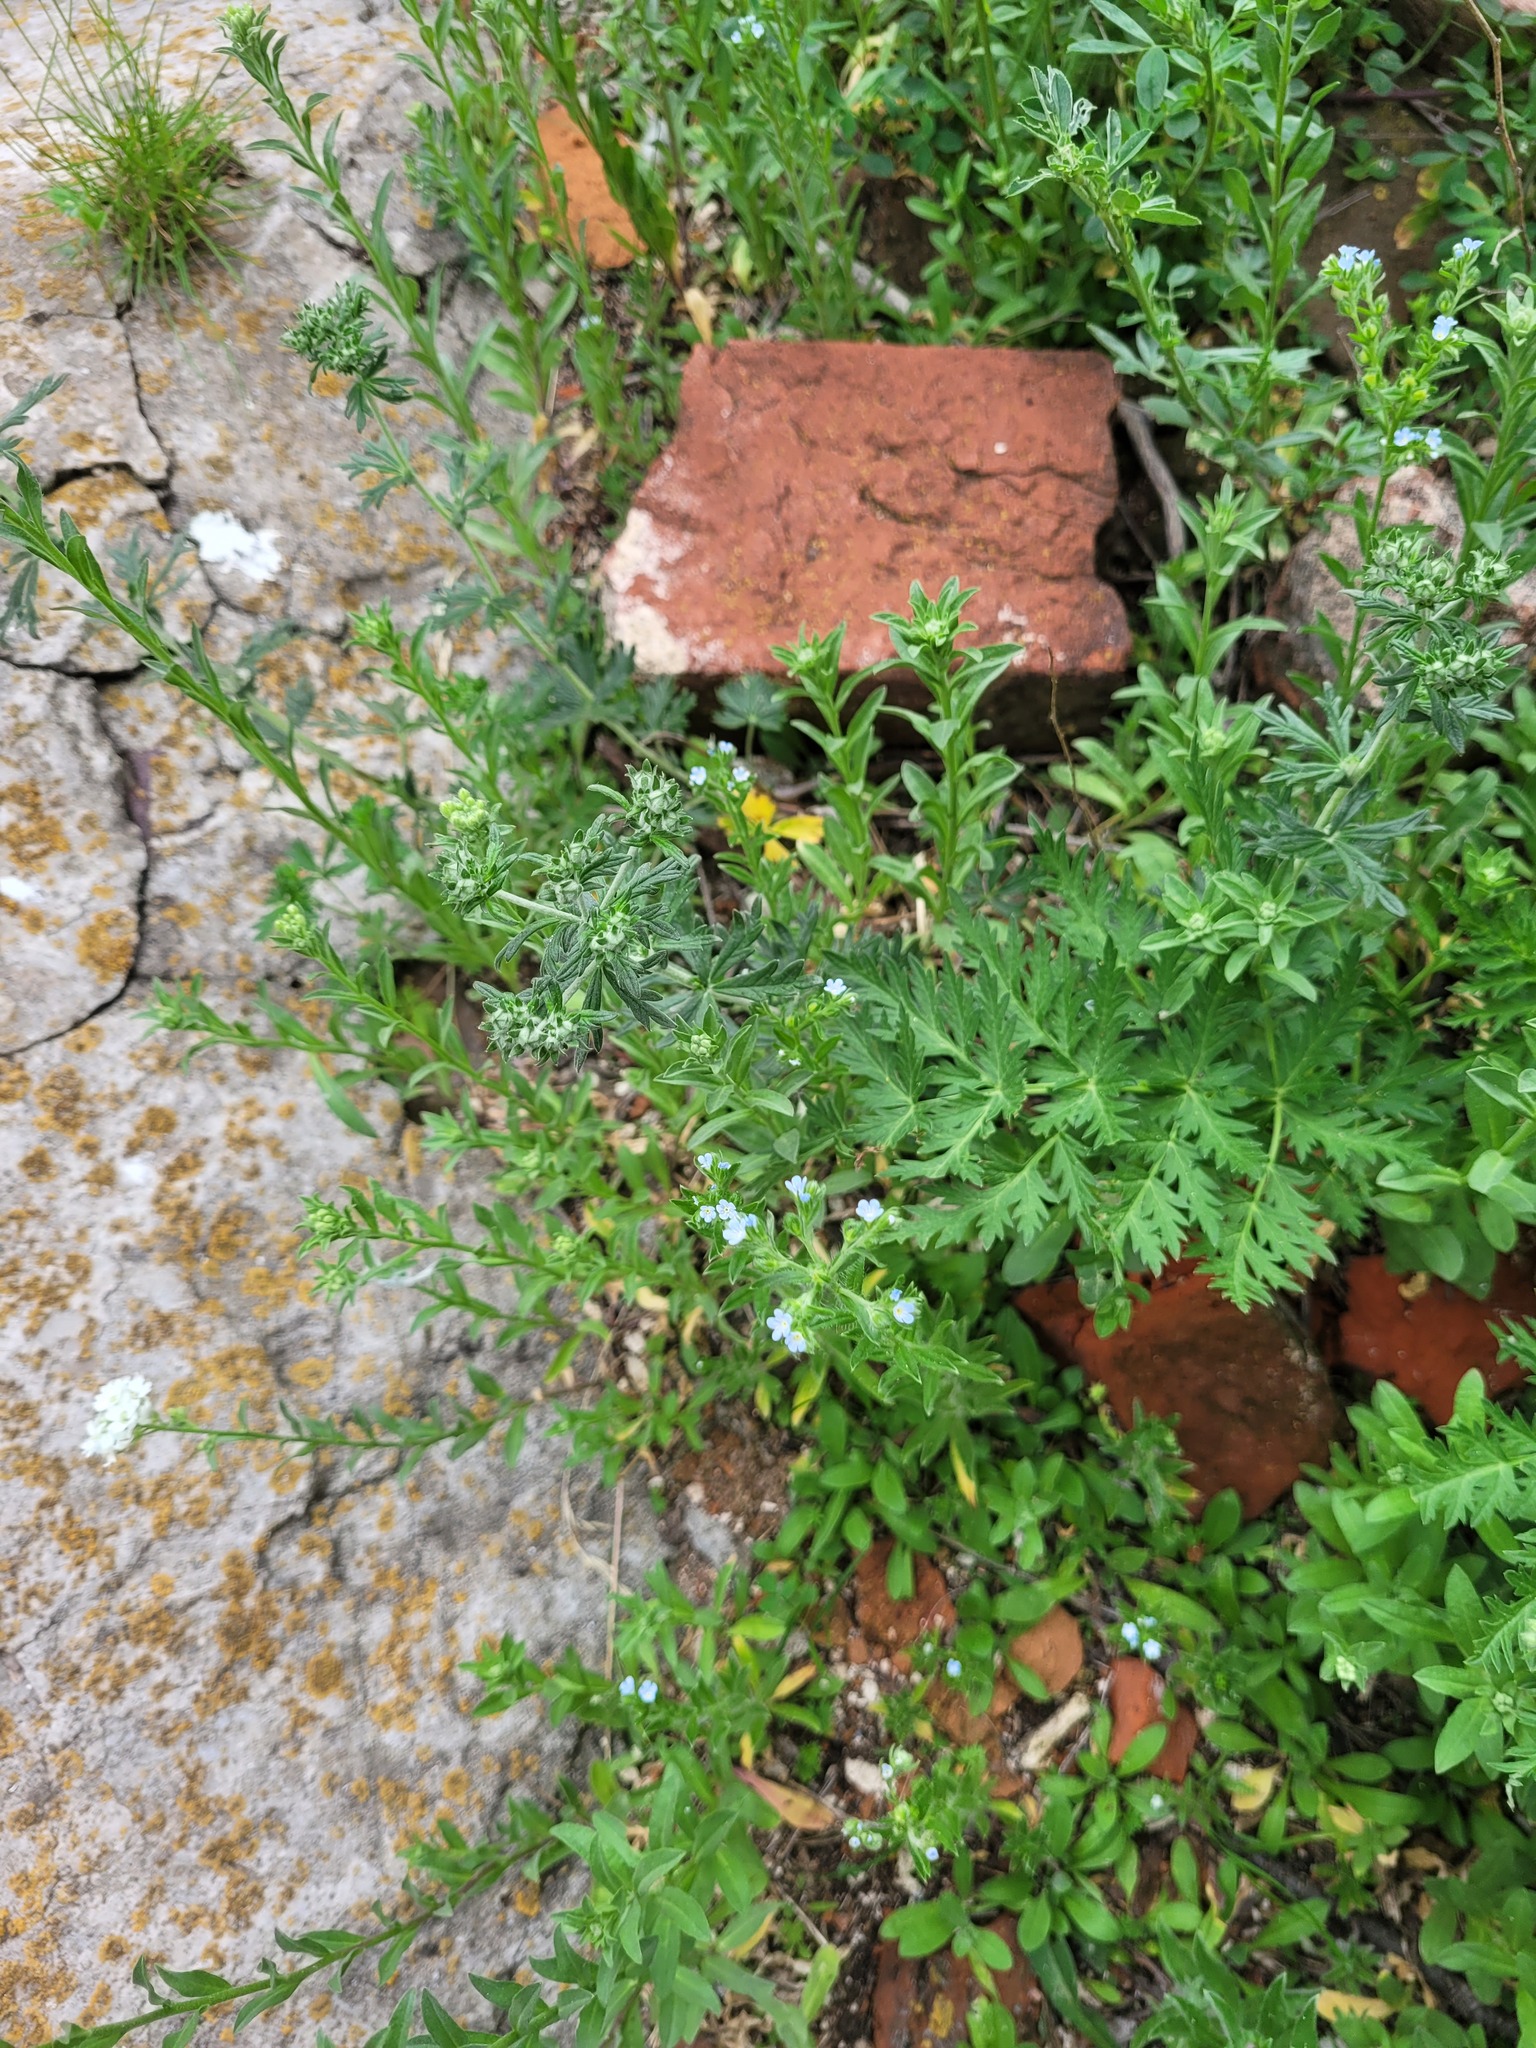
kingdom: Plantae
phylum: Tracheophyta
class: Magnoliopsida
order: Boraginales
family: Boraginaceae
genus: Lappula
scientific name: Lappula squarrosa
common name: European stickseed
